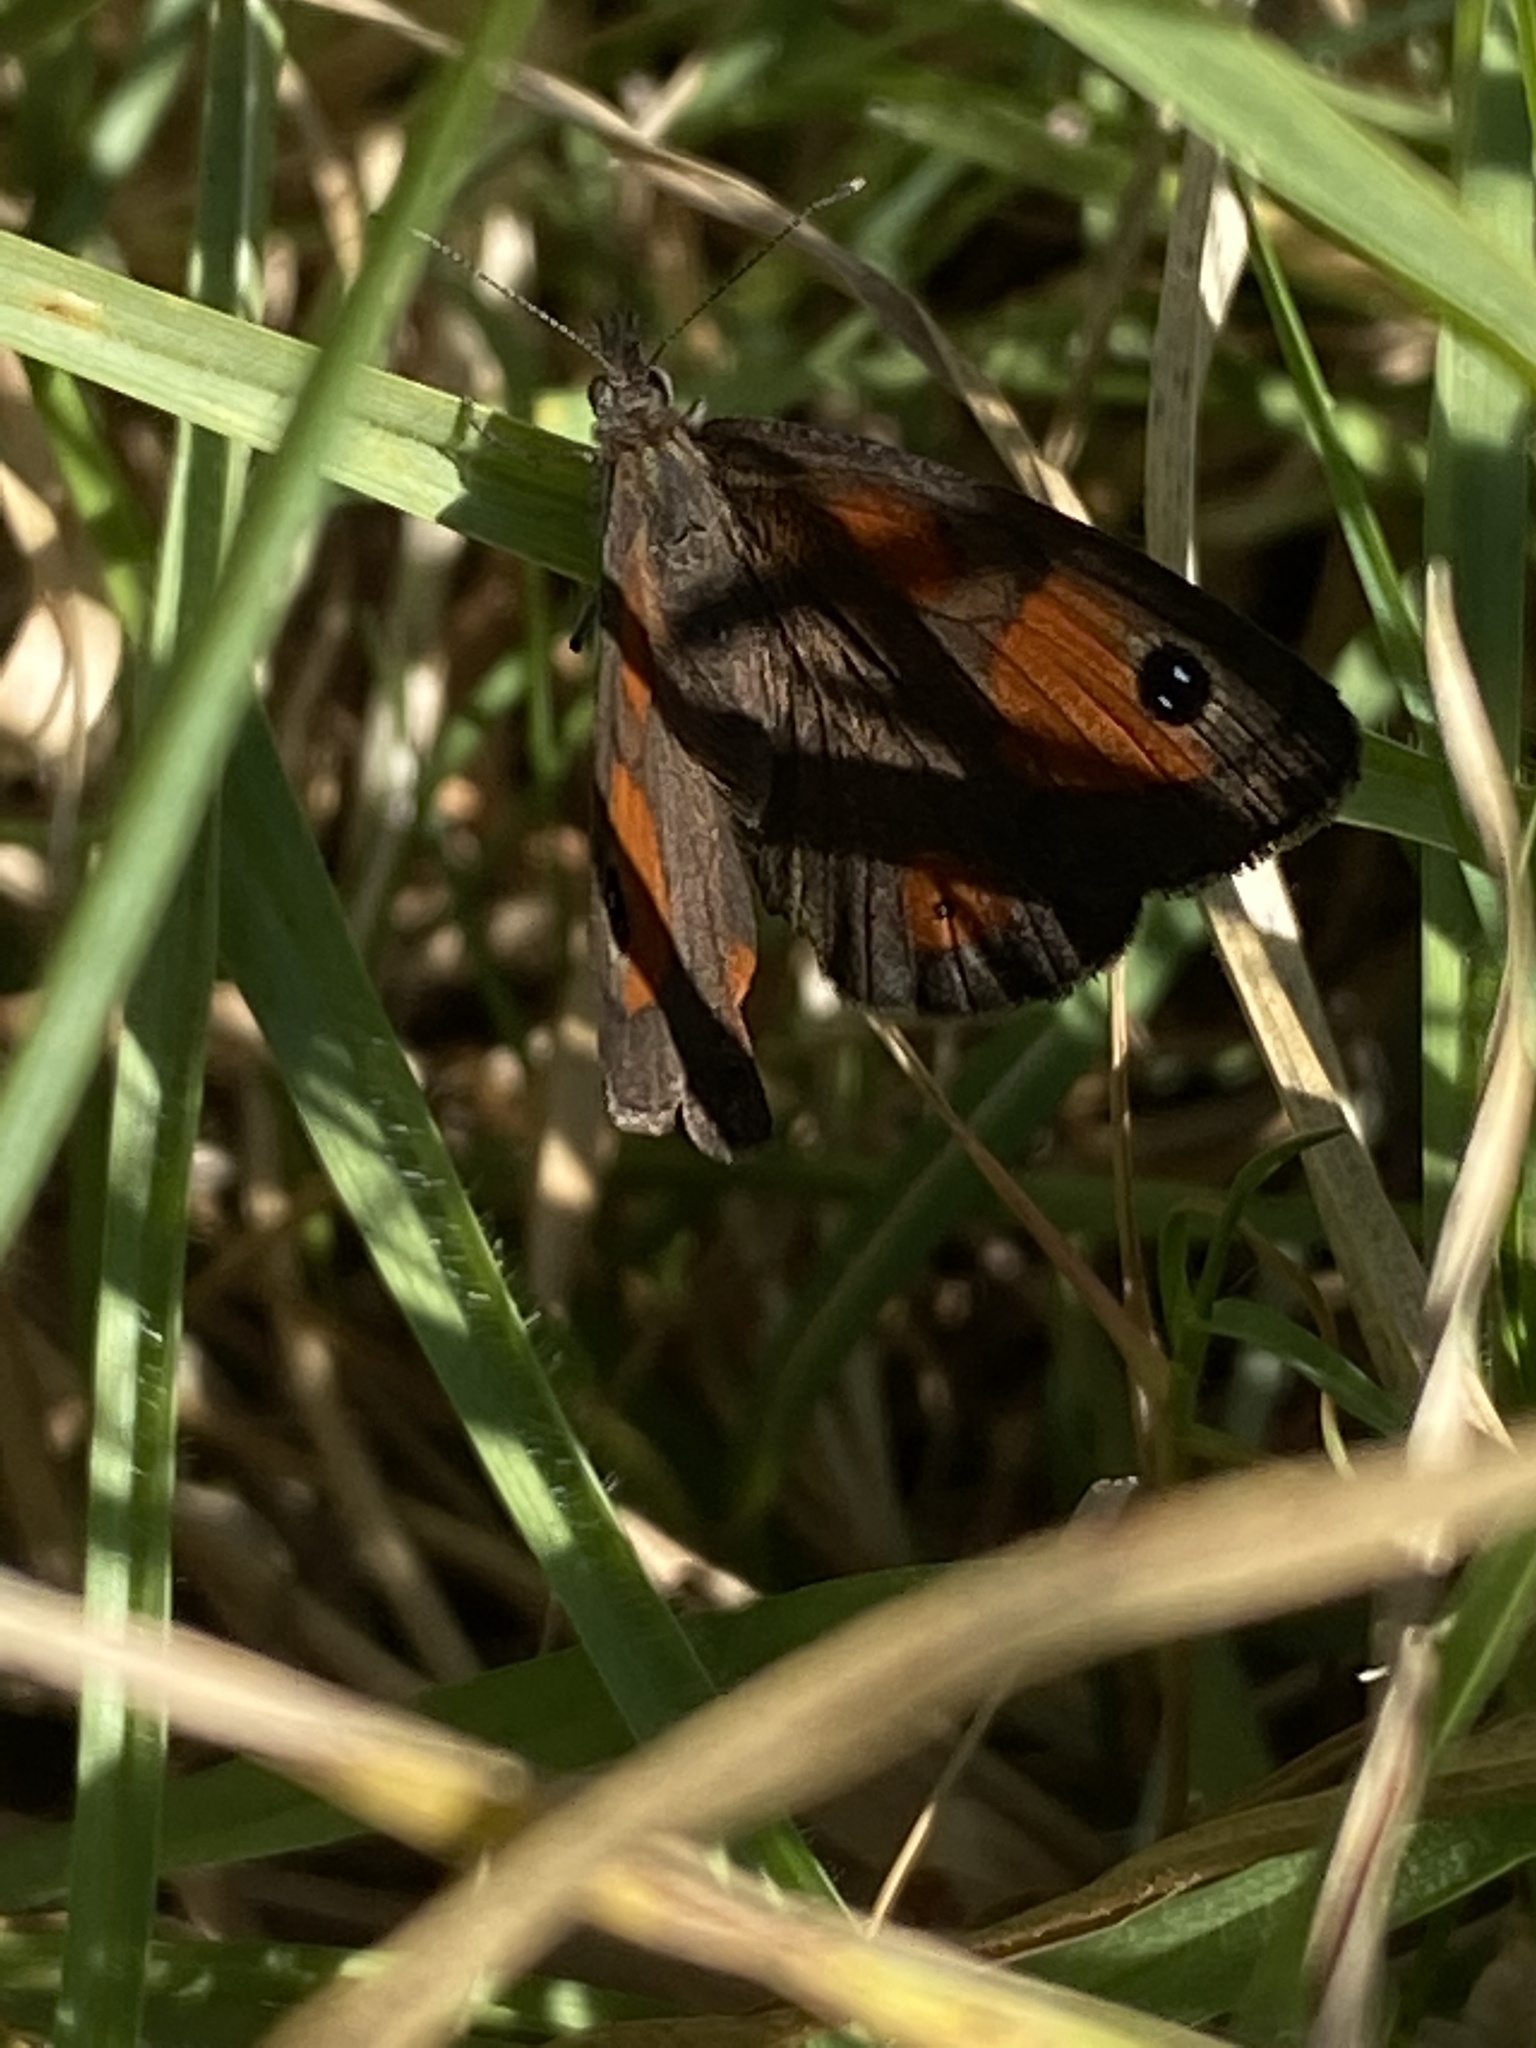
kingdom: Animalia
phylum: Arthropoda
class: Insecta
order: Lepidoptera
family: Nymphalidae
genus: Pseudonympha
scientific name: Pseudonympha magus
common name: Silver-bottom brown
